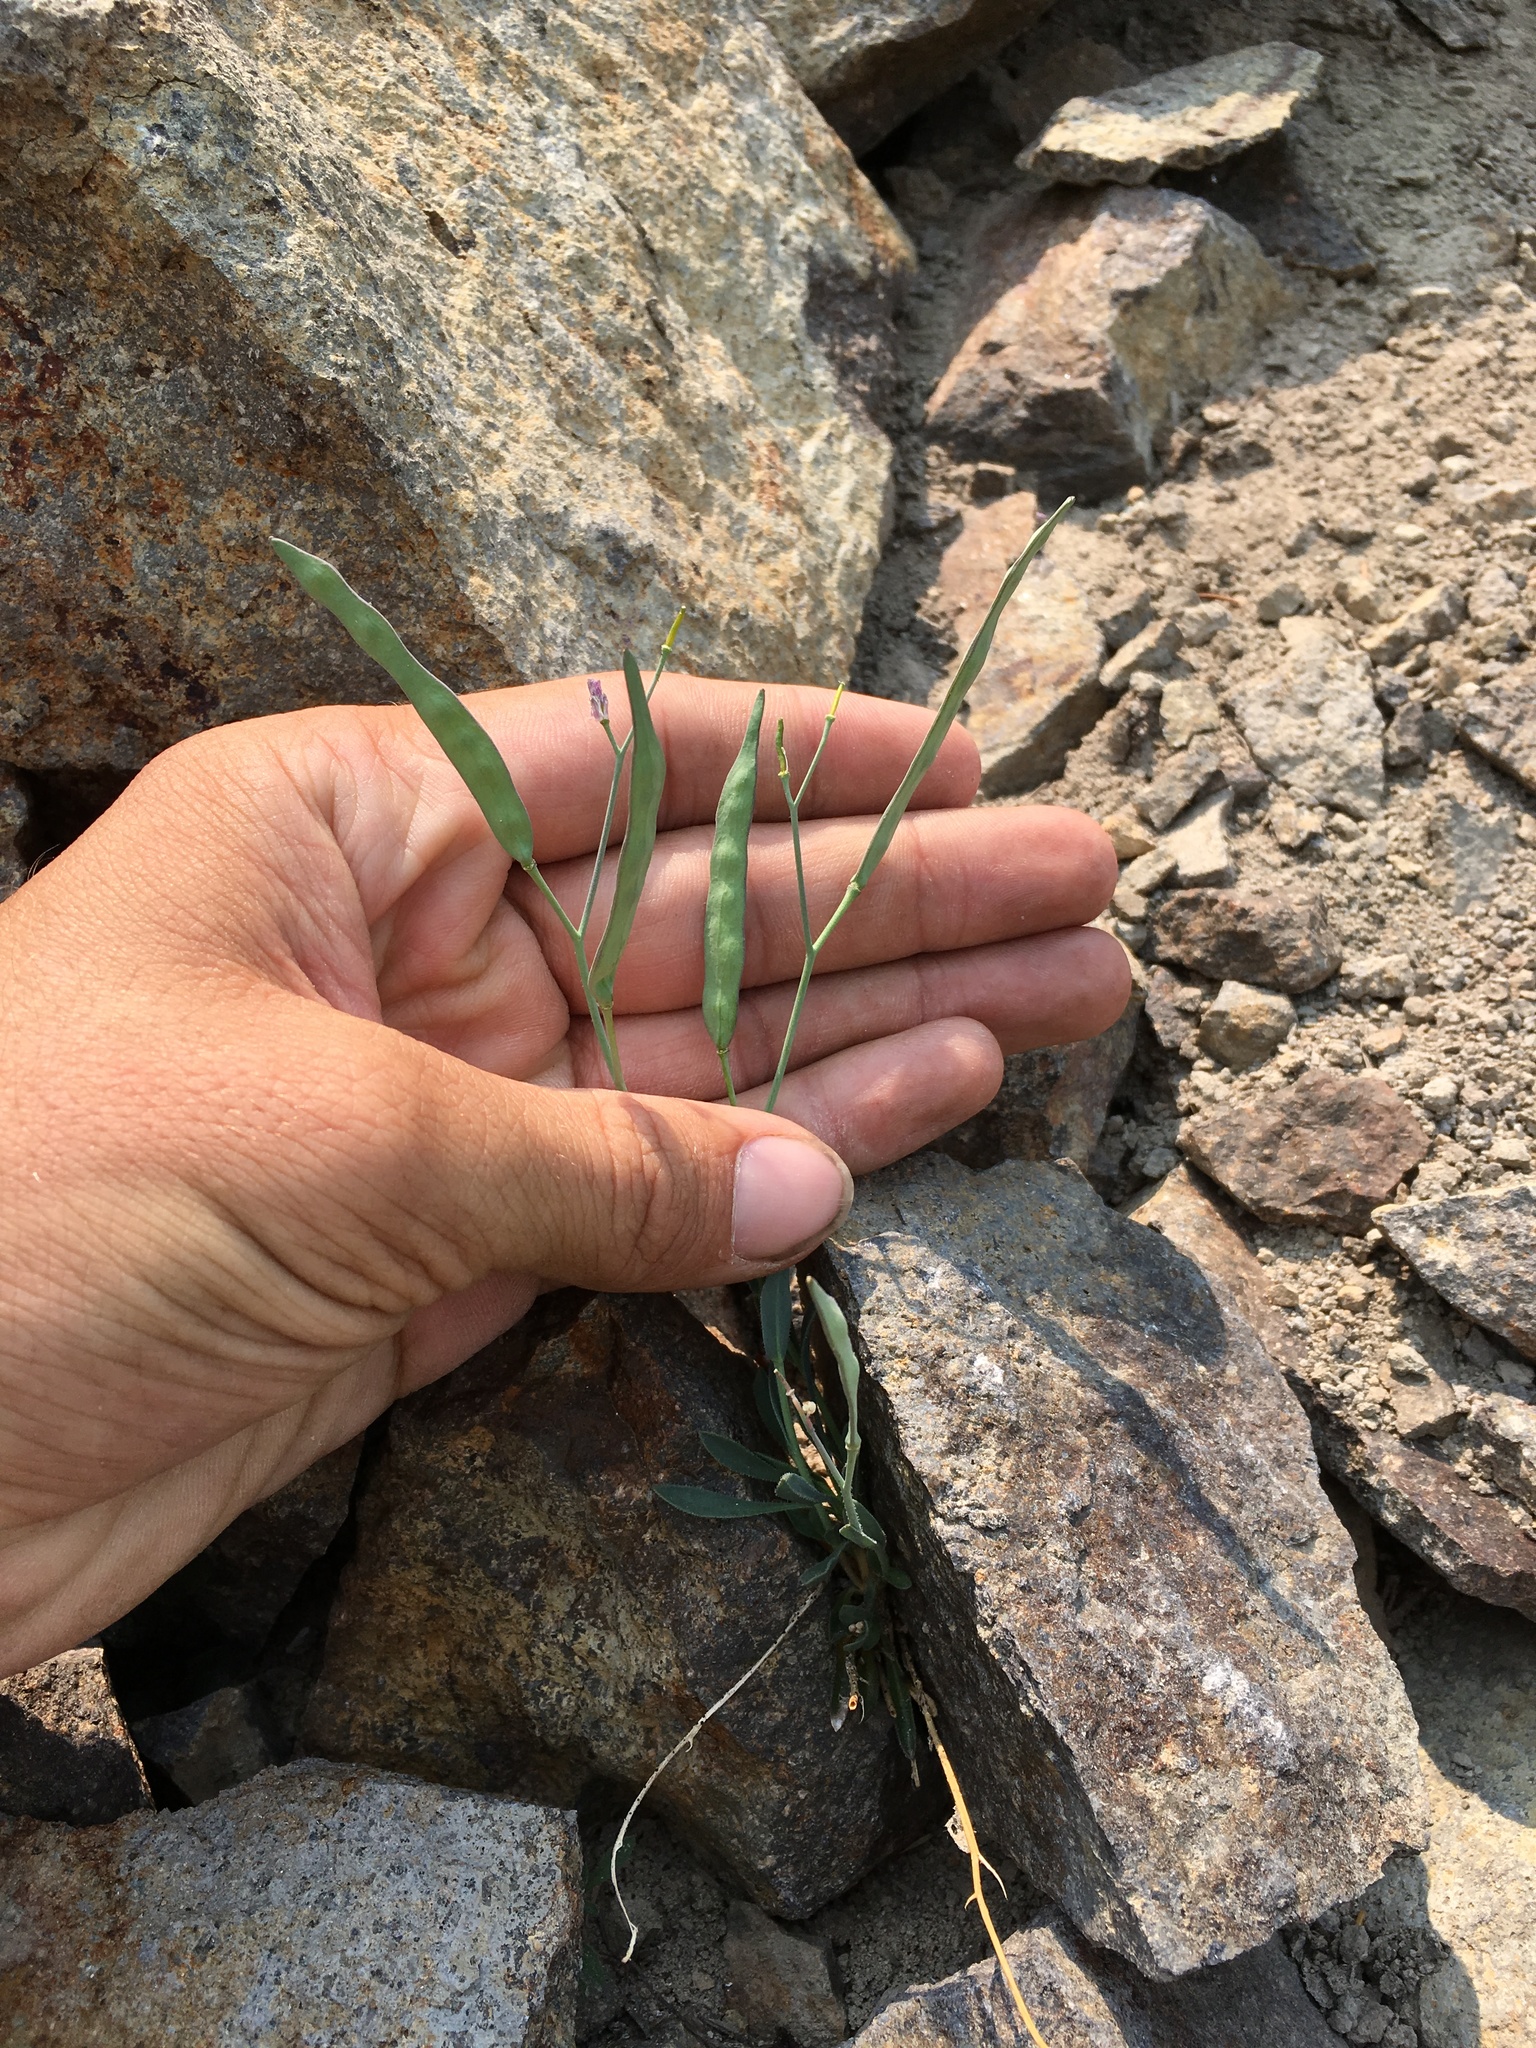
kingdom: Plantae
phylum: Tracheophyta
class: Magnoliopsida
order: Brassicales
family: Brassicaceae
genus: Boechera
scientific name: Boechera howellii
